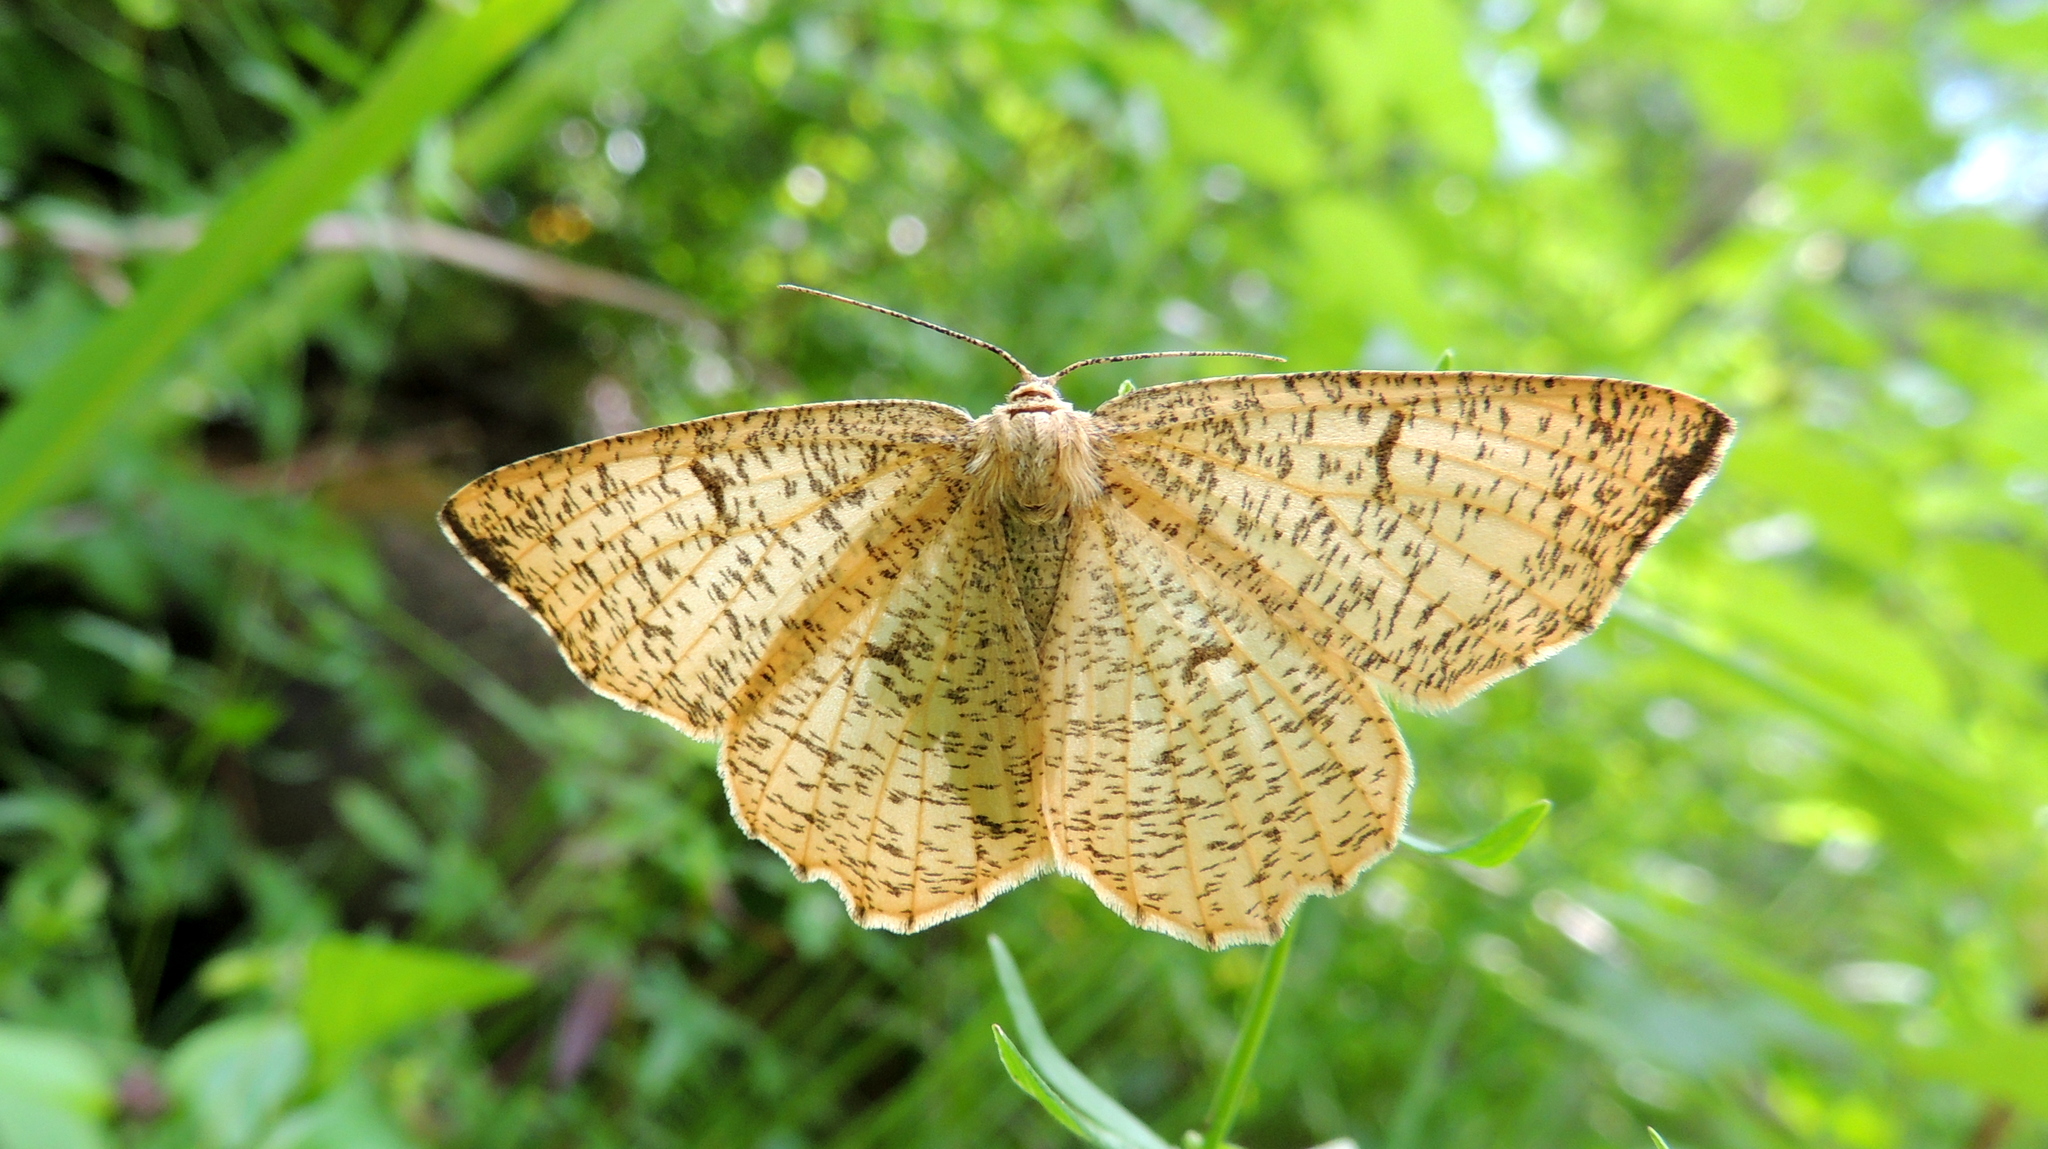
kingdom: Animalia
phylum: Arthropoda
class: Insecta
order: Lepidoptera
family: Geometridae
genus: Angerona
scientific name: Angerona prunaria
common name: Orange moth
